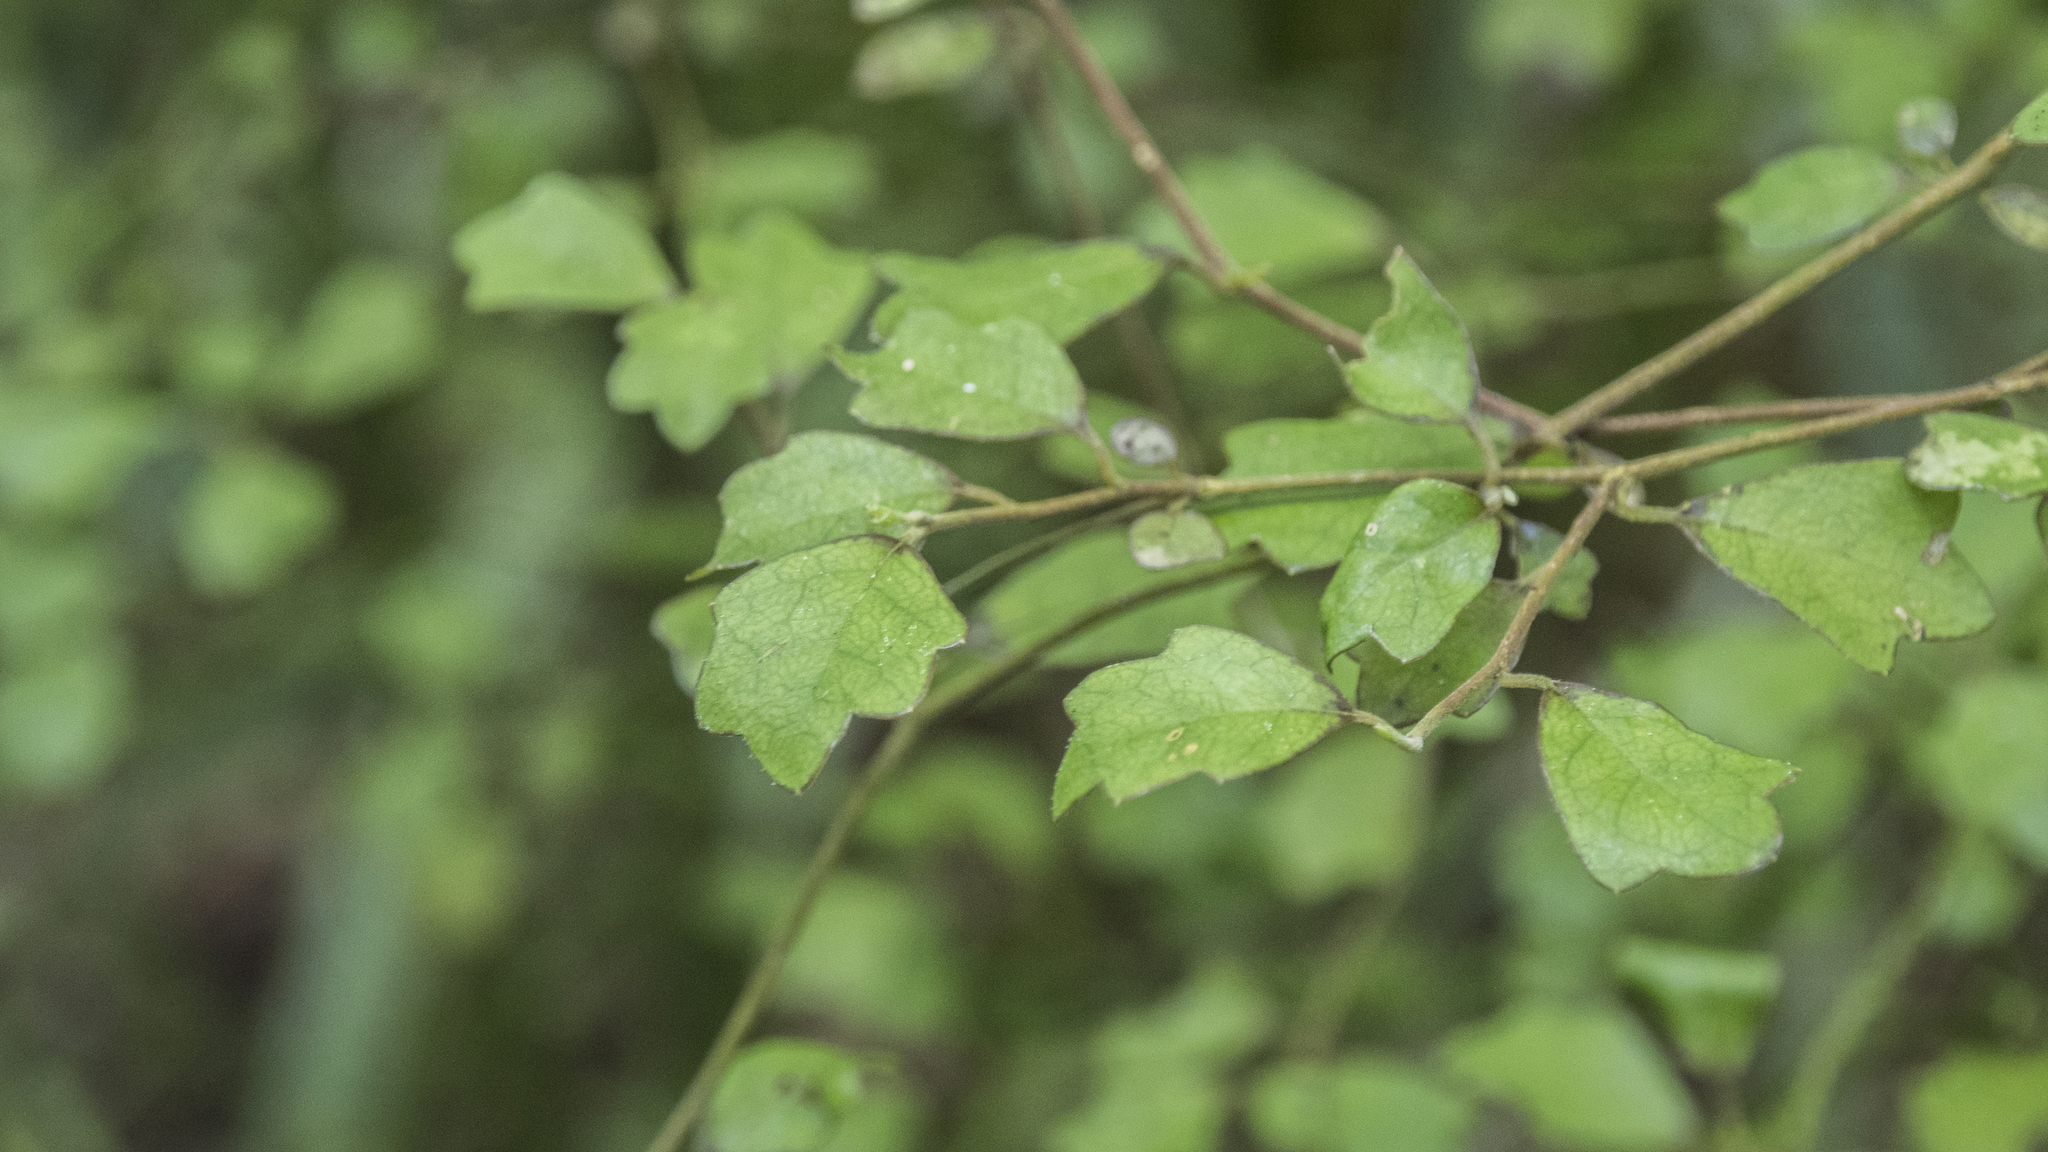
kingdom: Plantae
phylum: Tracheophyta
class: Magnoliopsida
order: Apiales
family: Pennantiaceae
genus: Pennantia
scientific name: Pennantia corymbosa
